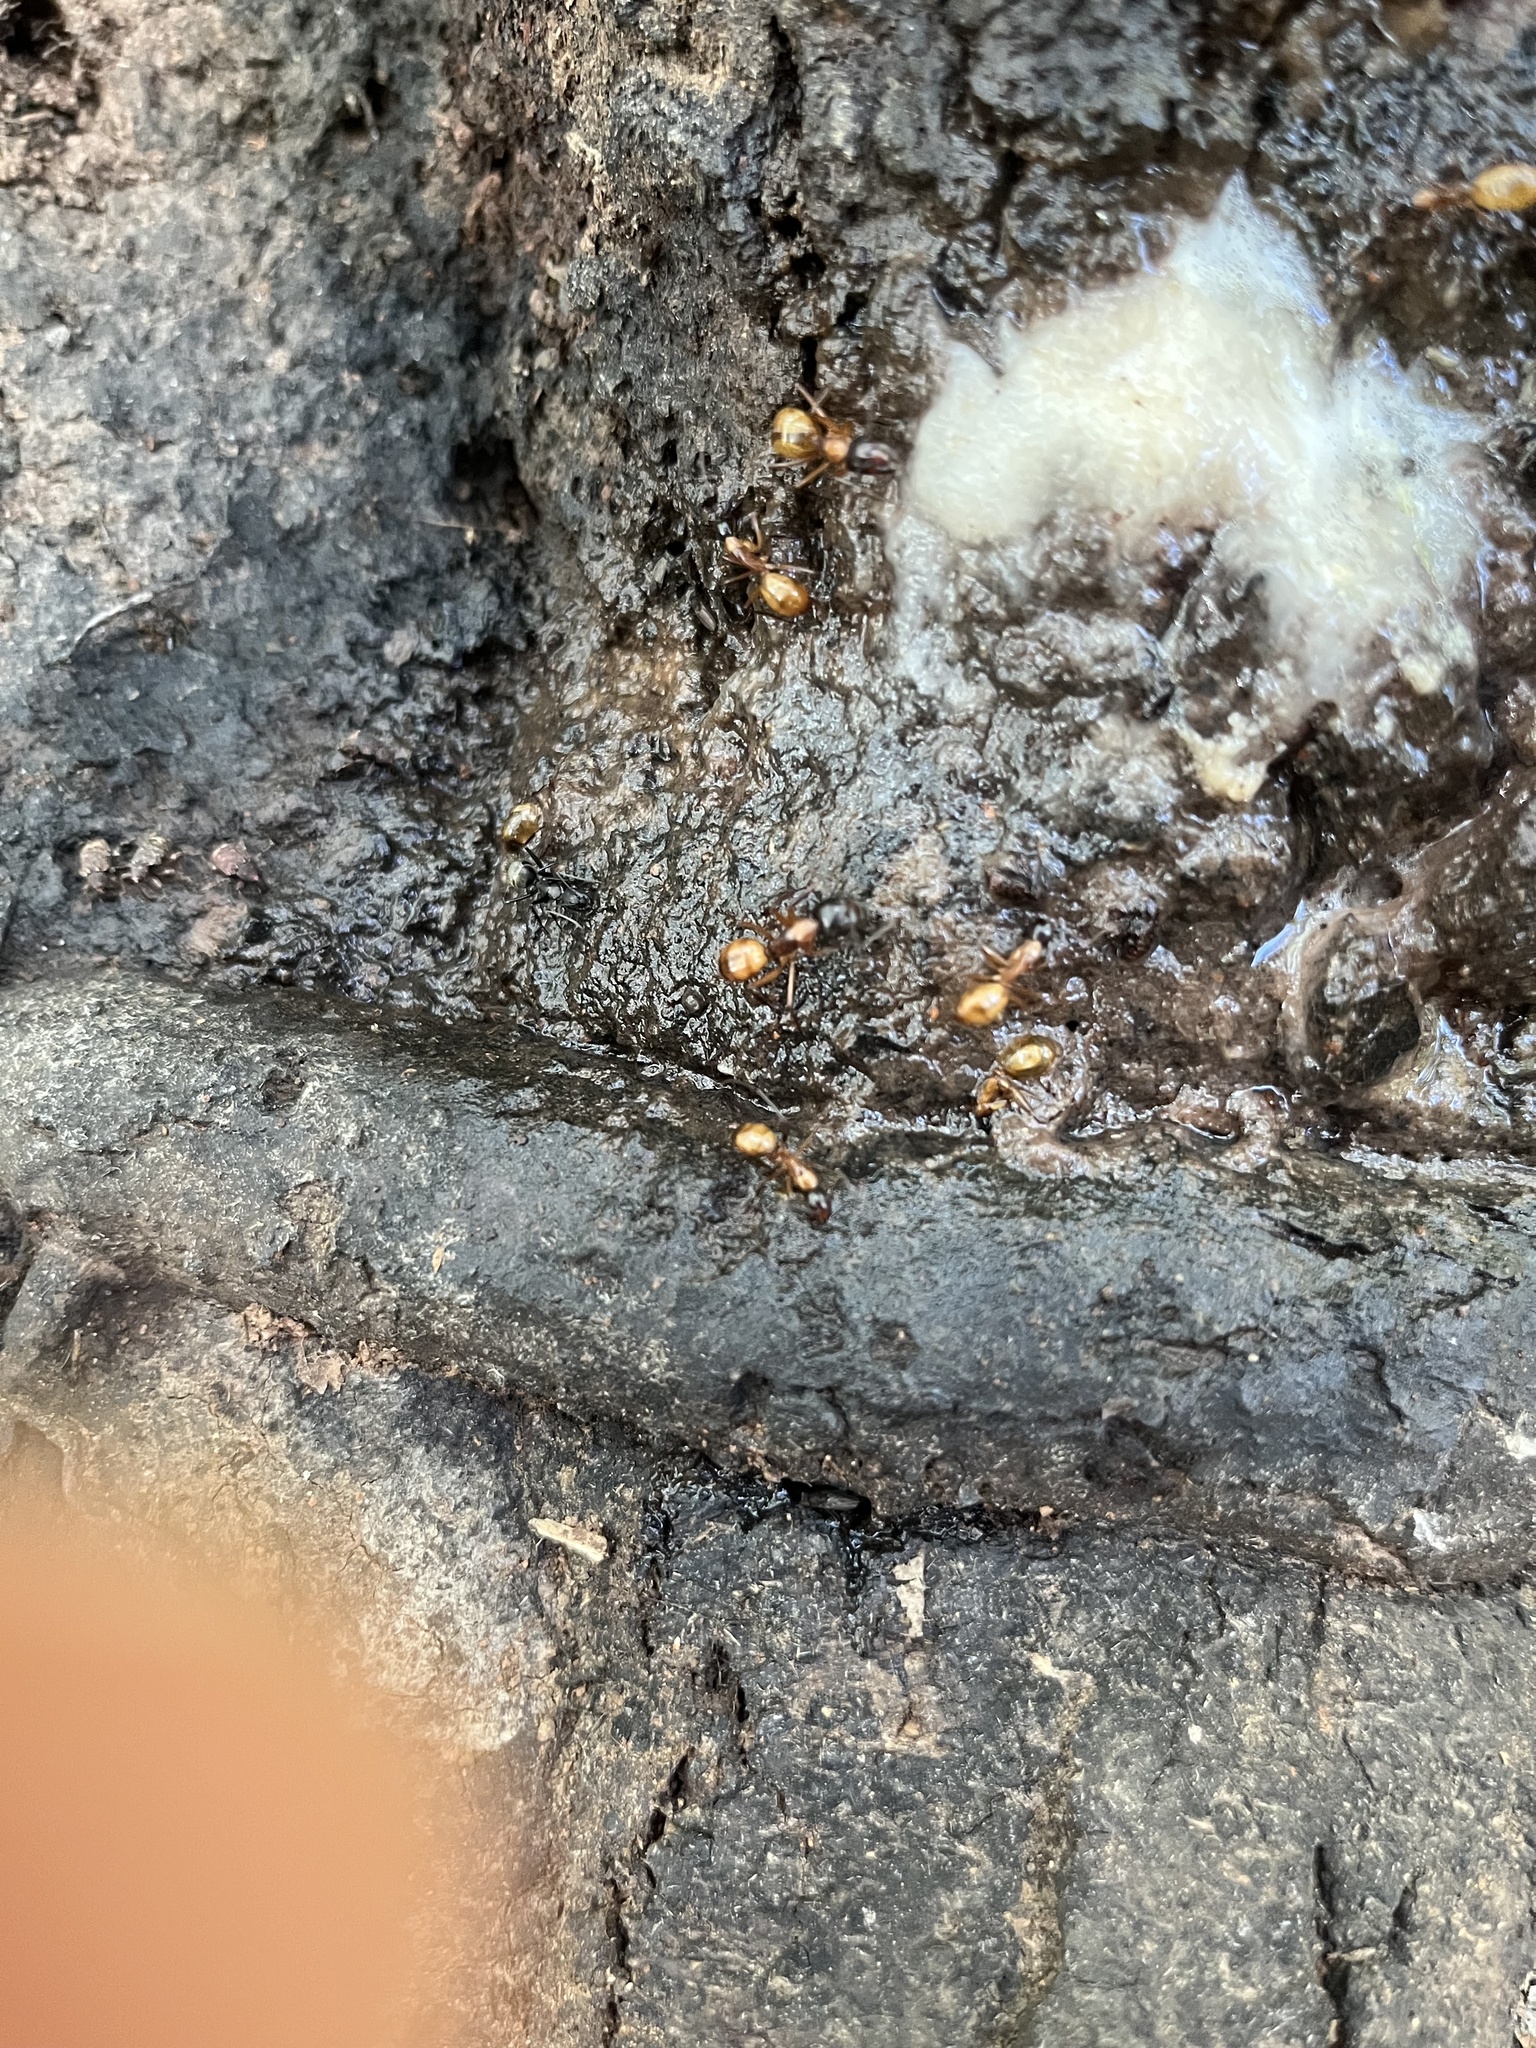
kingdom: Animalia
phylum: Arthropoda
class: Insecta
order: Hymenoptera
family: Formicidae
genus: Camponotus
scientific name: Camponotus americanus
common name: American carpenter ant
